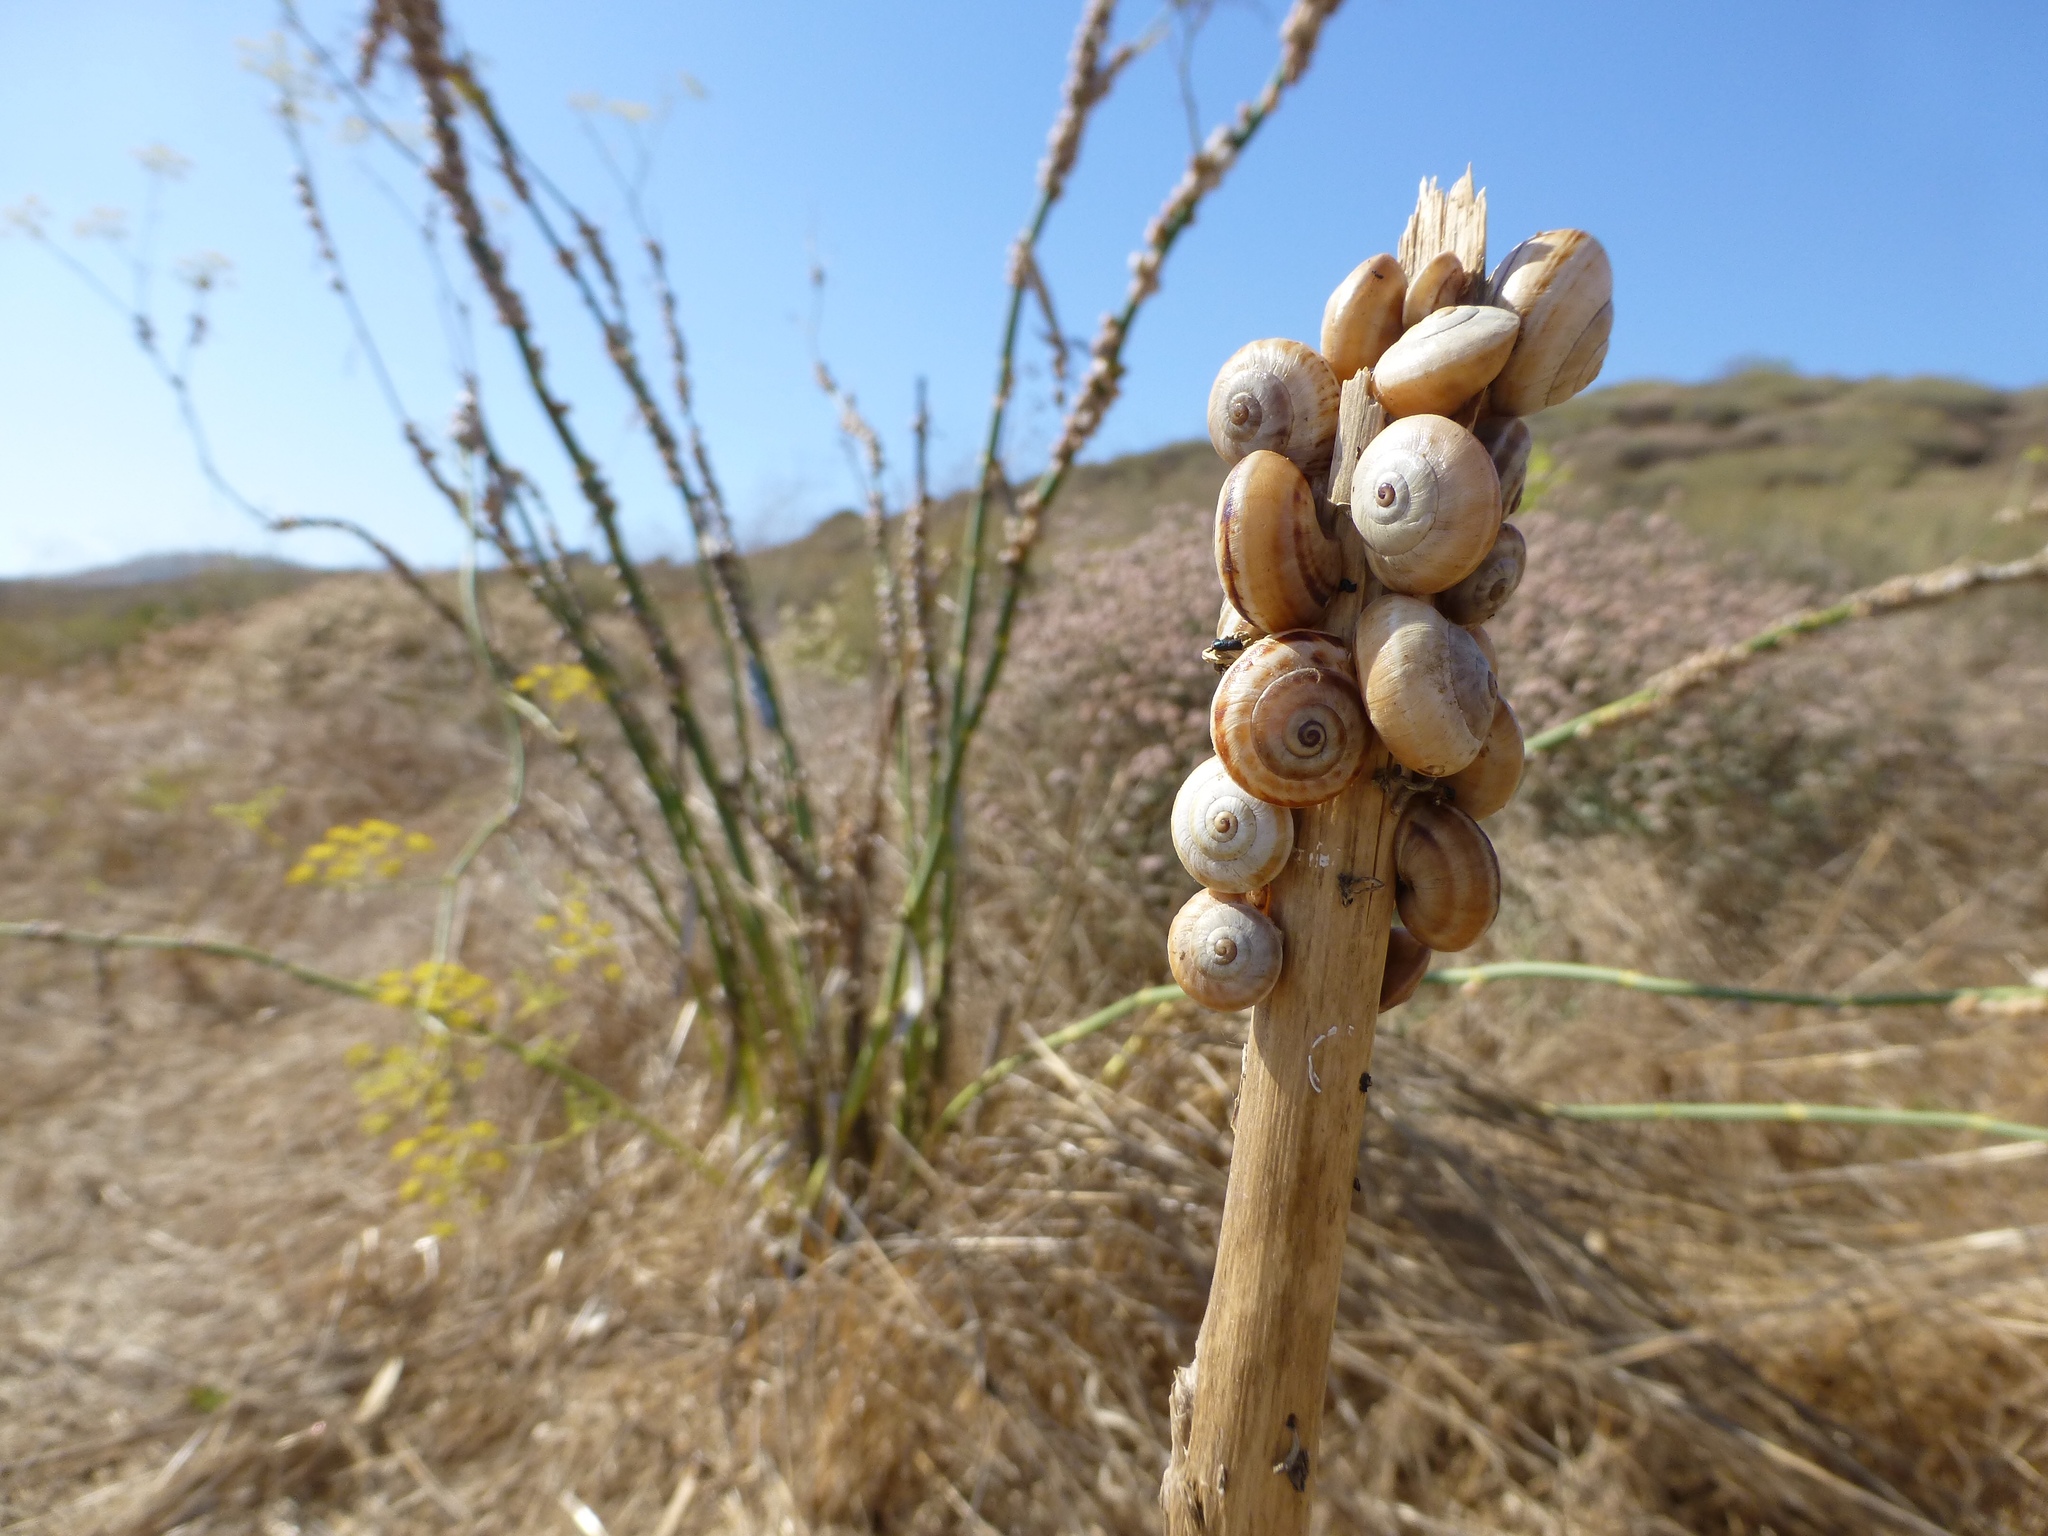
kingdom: Animalia
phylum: Mollusca
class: Gastropoda
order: Stylommatophora
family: Helicidae
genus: Theba
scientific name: Theba pisana
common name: White snail
